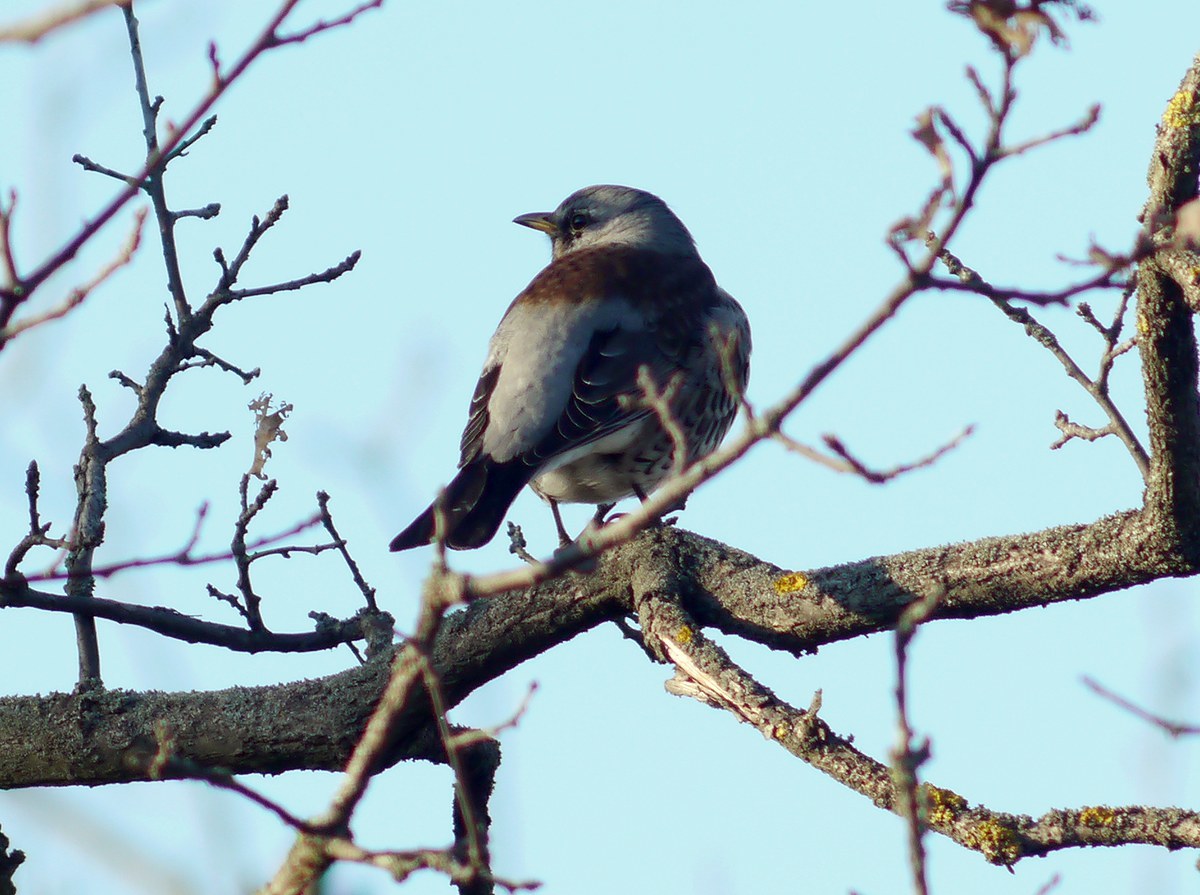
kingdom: Animalia
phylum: Chordata
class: Aves
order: Passeriformes
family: Turdidae
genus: Turdus
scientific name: Turdus pilaris
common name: Fieldfare
